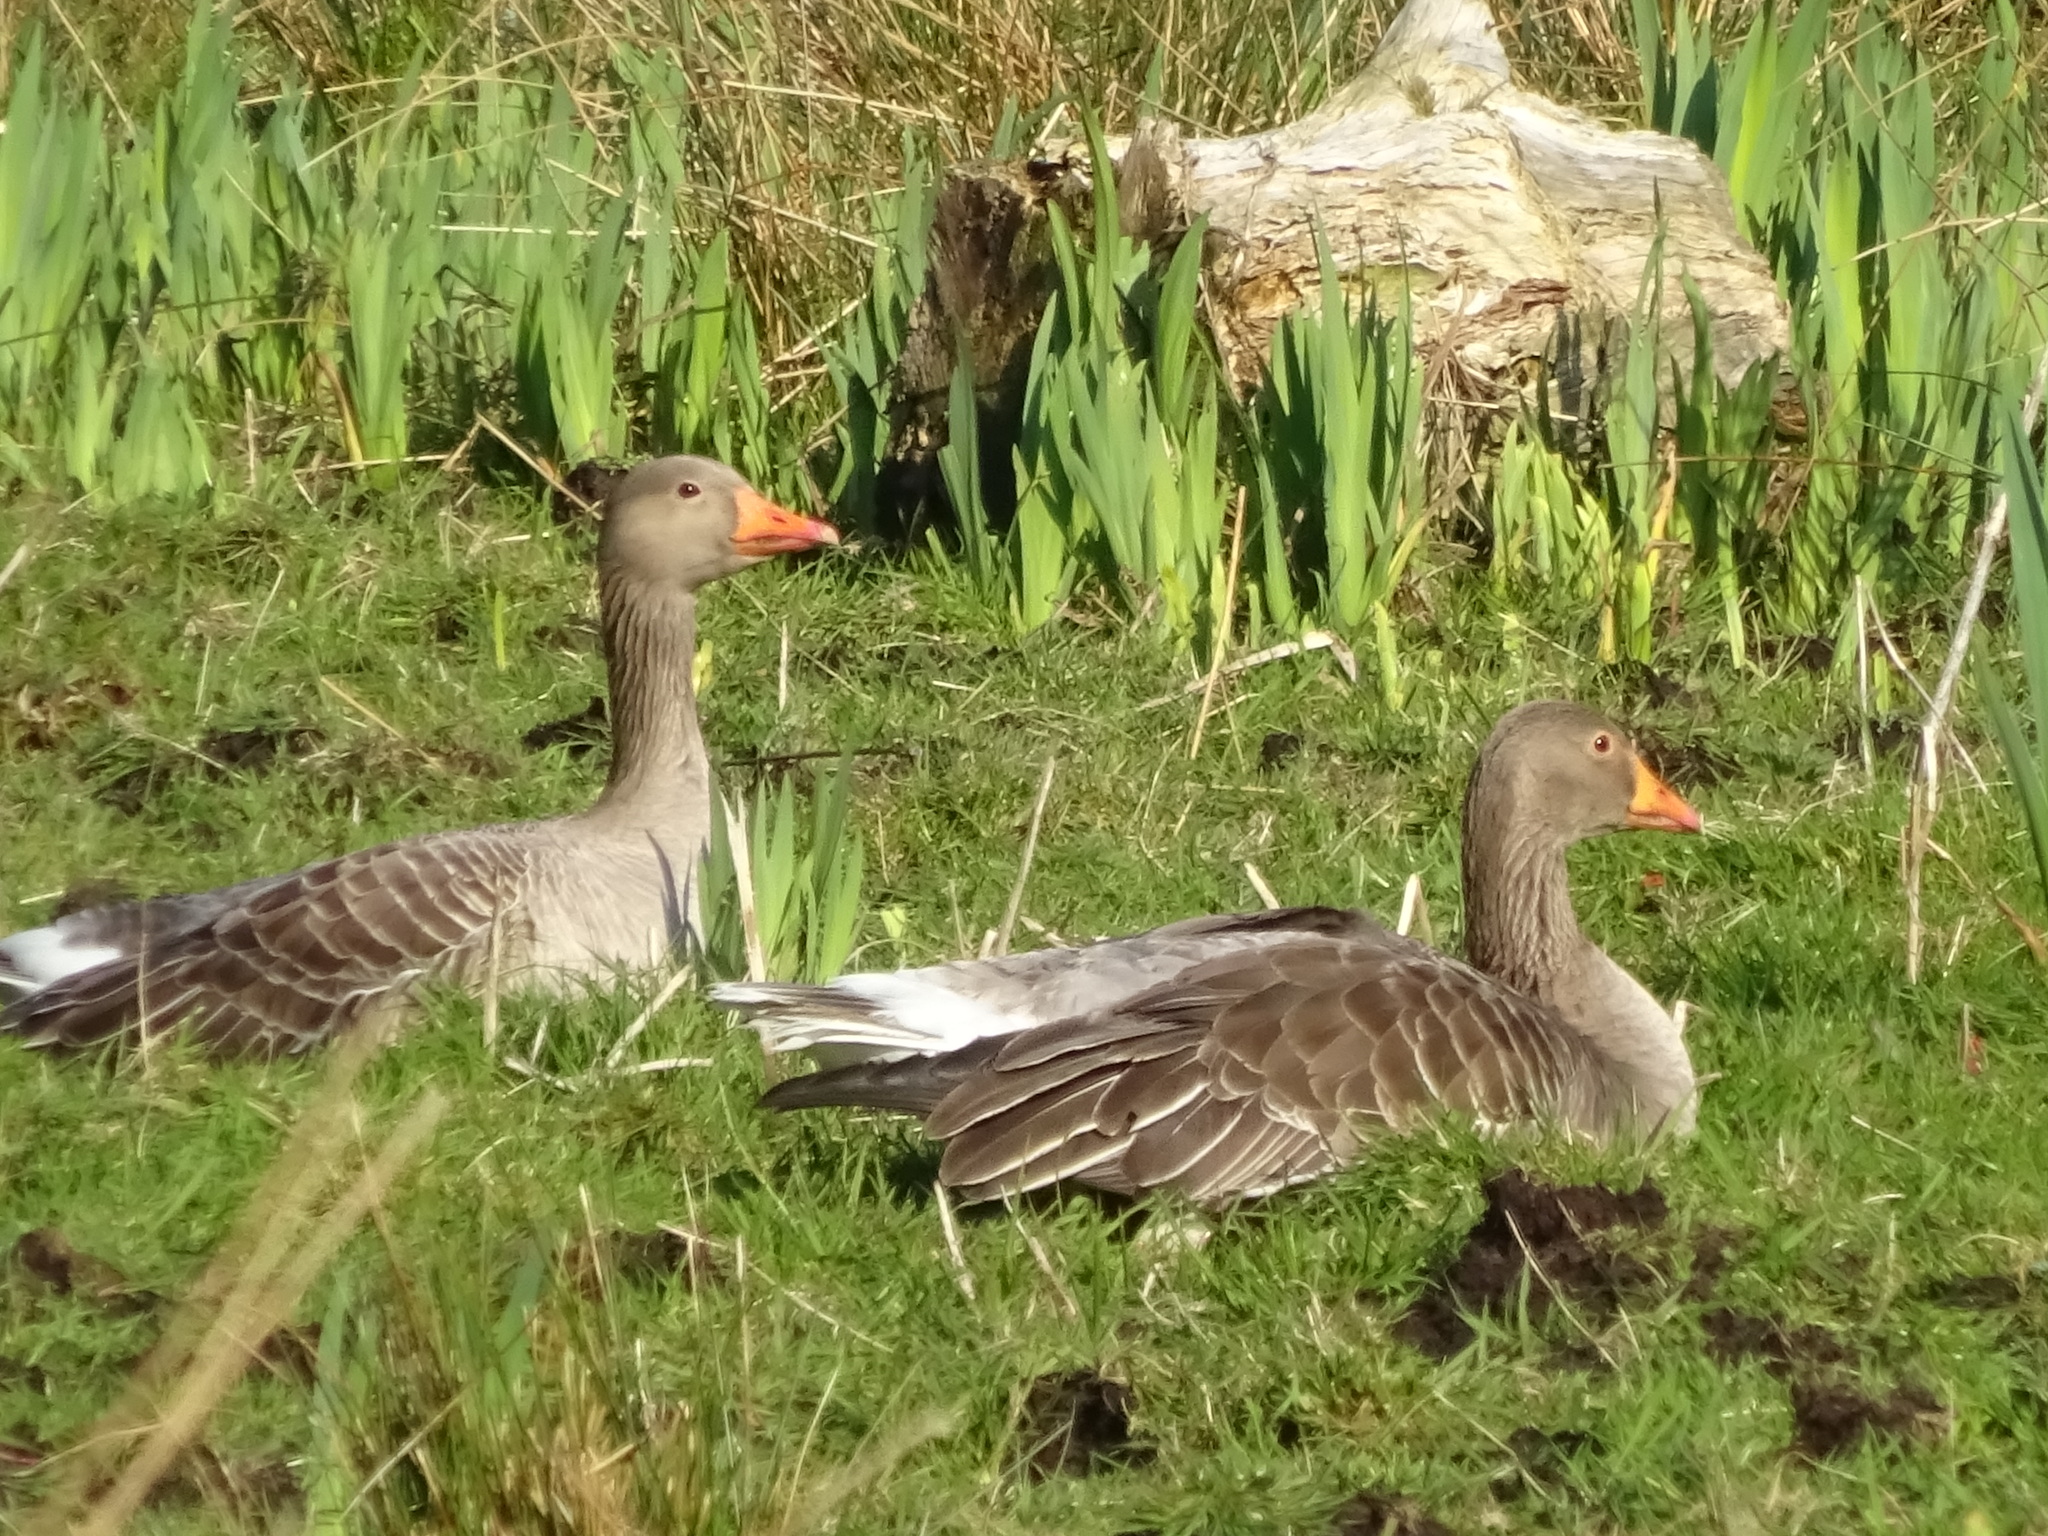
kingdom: Animalia
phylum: Chordata
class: Aves
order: Anseriformes
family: Anatidae
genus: Anser
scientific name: Anser anser
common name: Greylag goose
